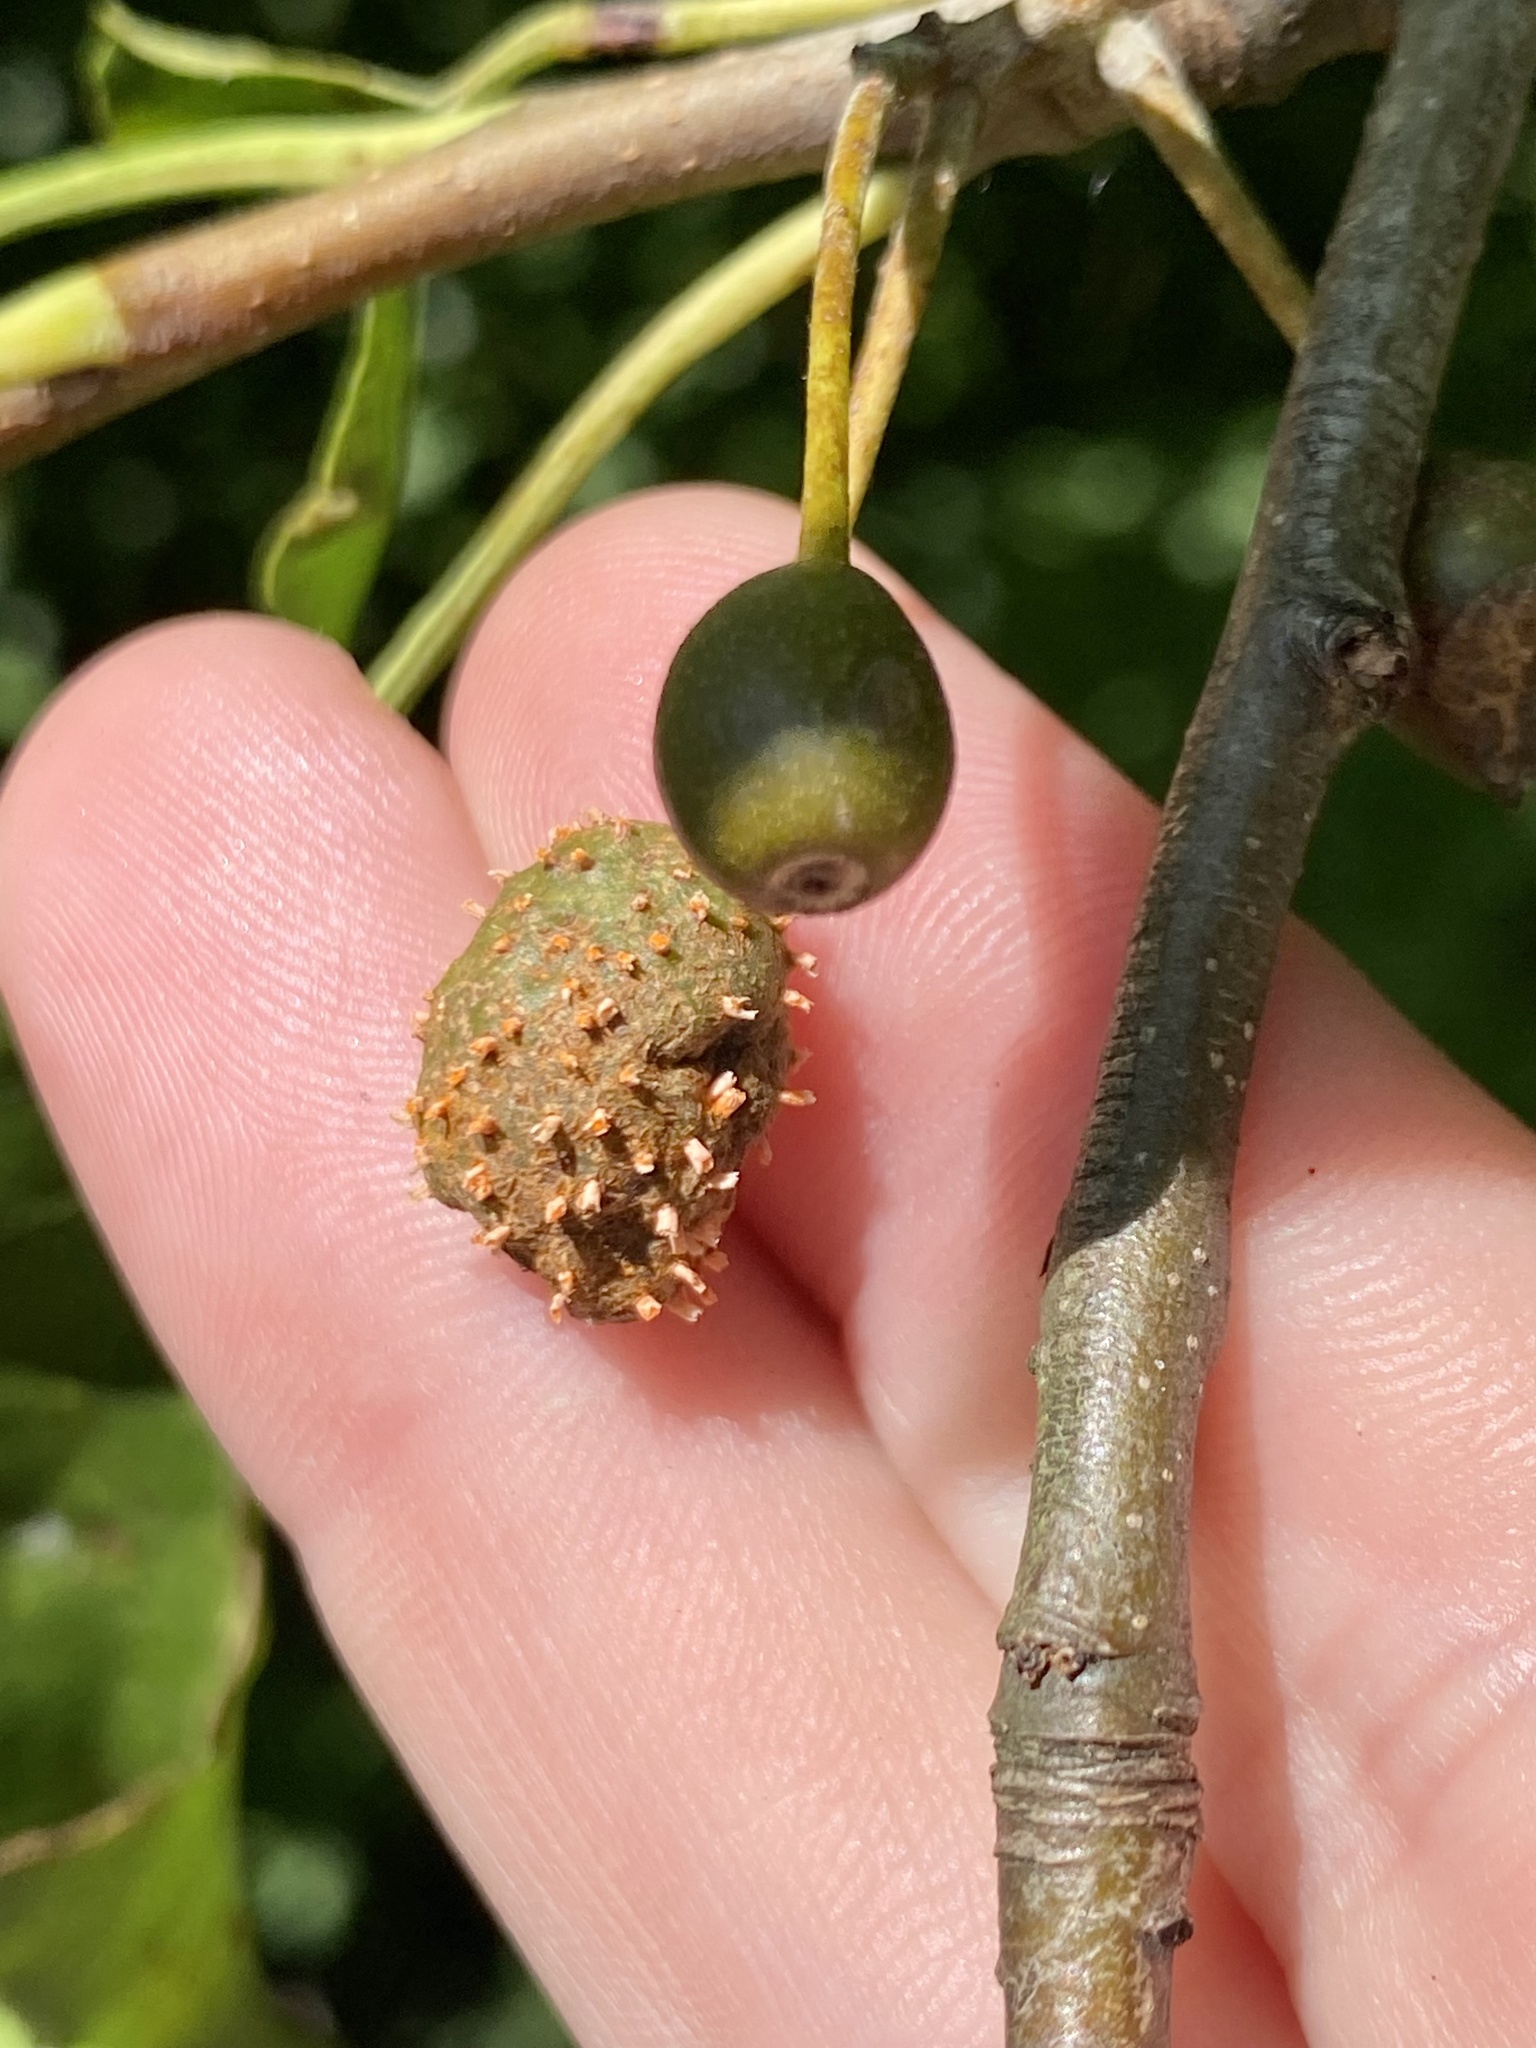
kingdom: Fungi
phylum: Basidiomycota
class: Pucciniomycetes
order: Pucciniales
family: Gymnosporangiaceae
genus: Gymnosporangium
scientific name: Gymnosporangium clavipes
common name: Quince rust
